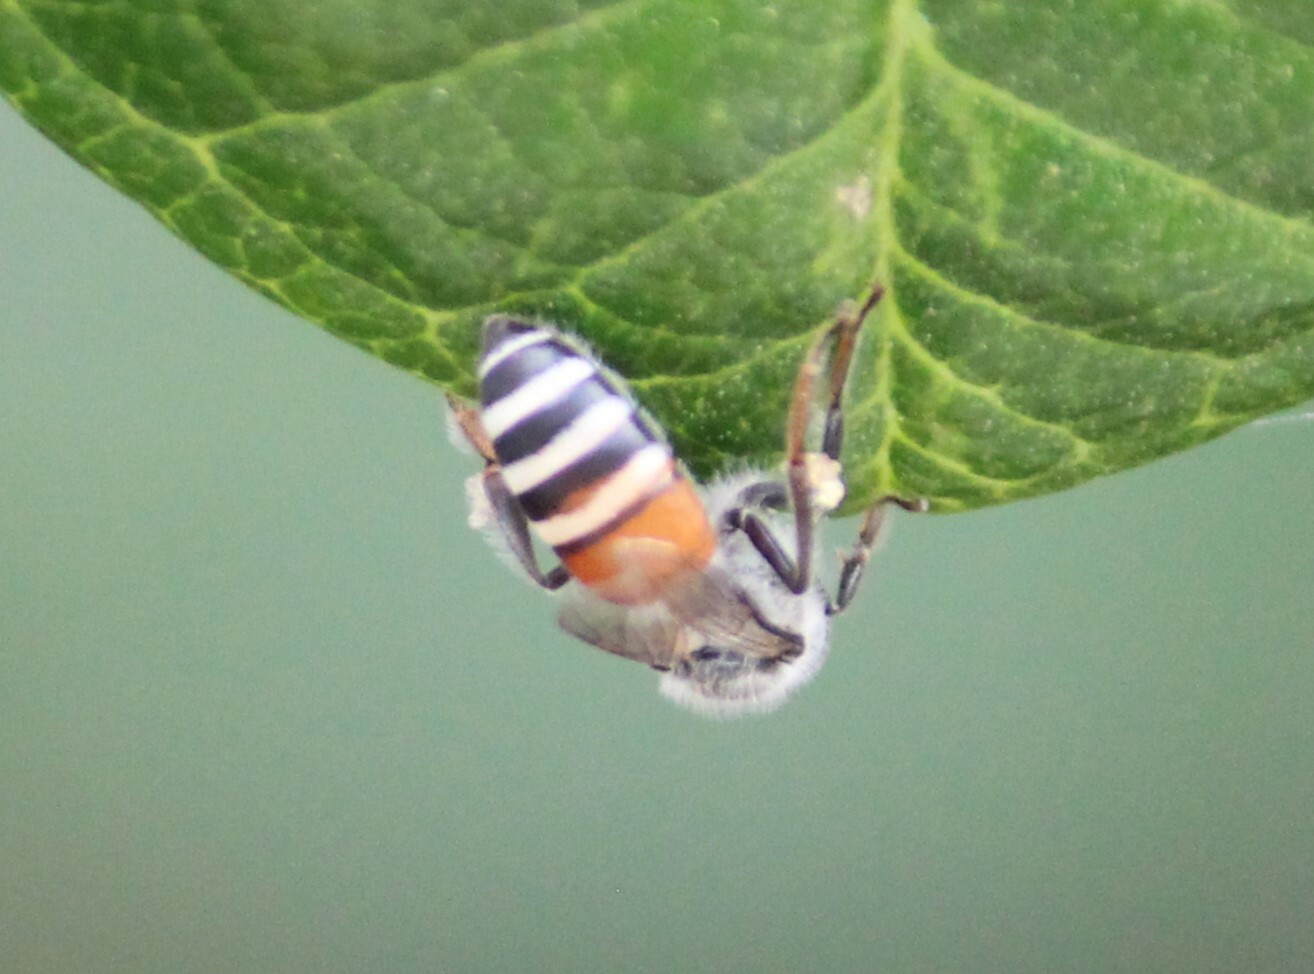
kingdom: Animalia
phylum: Arthropoda
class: Insecta
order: Hymenoptera
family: Apidae
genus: Apis
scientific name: Apis florea
